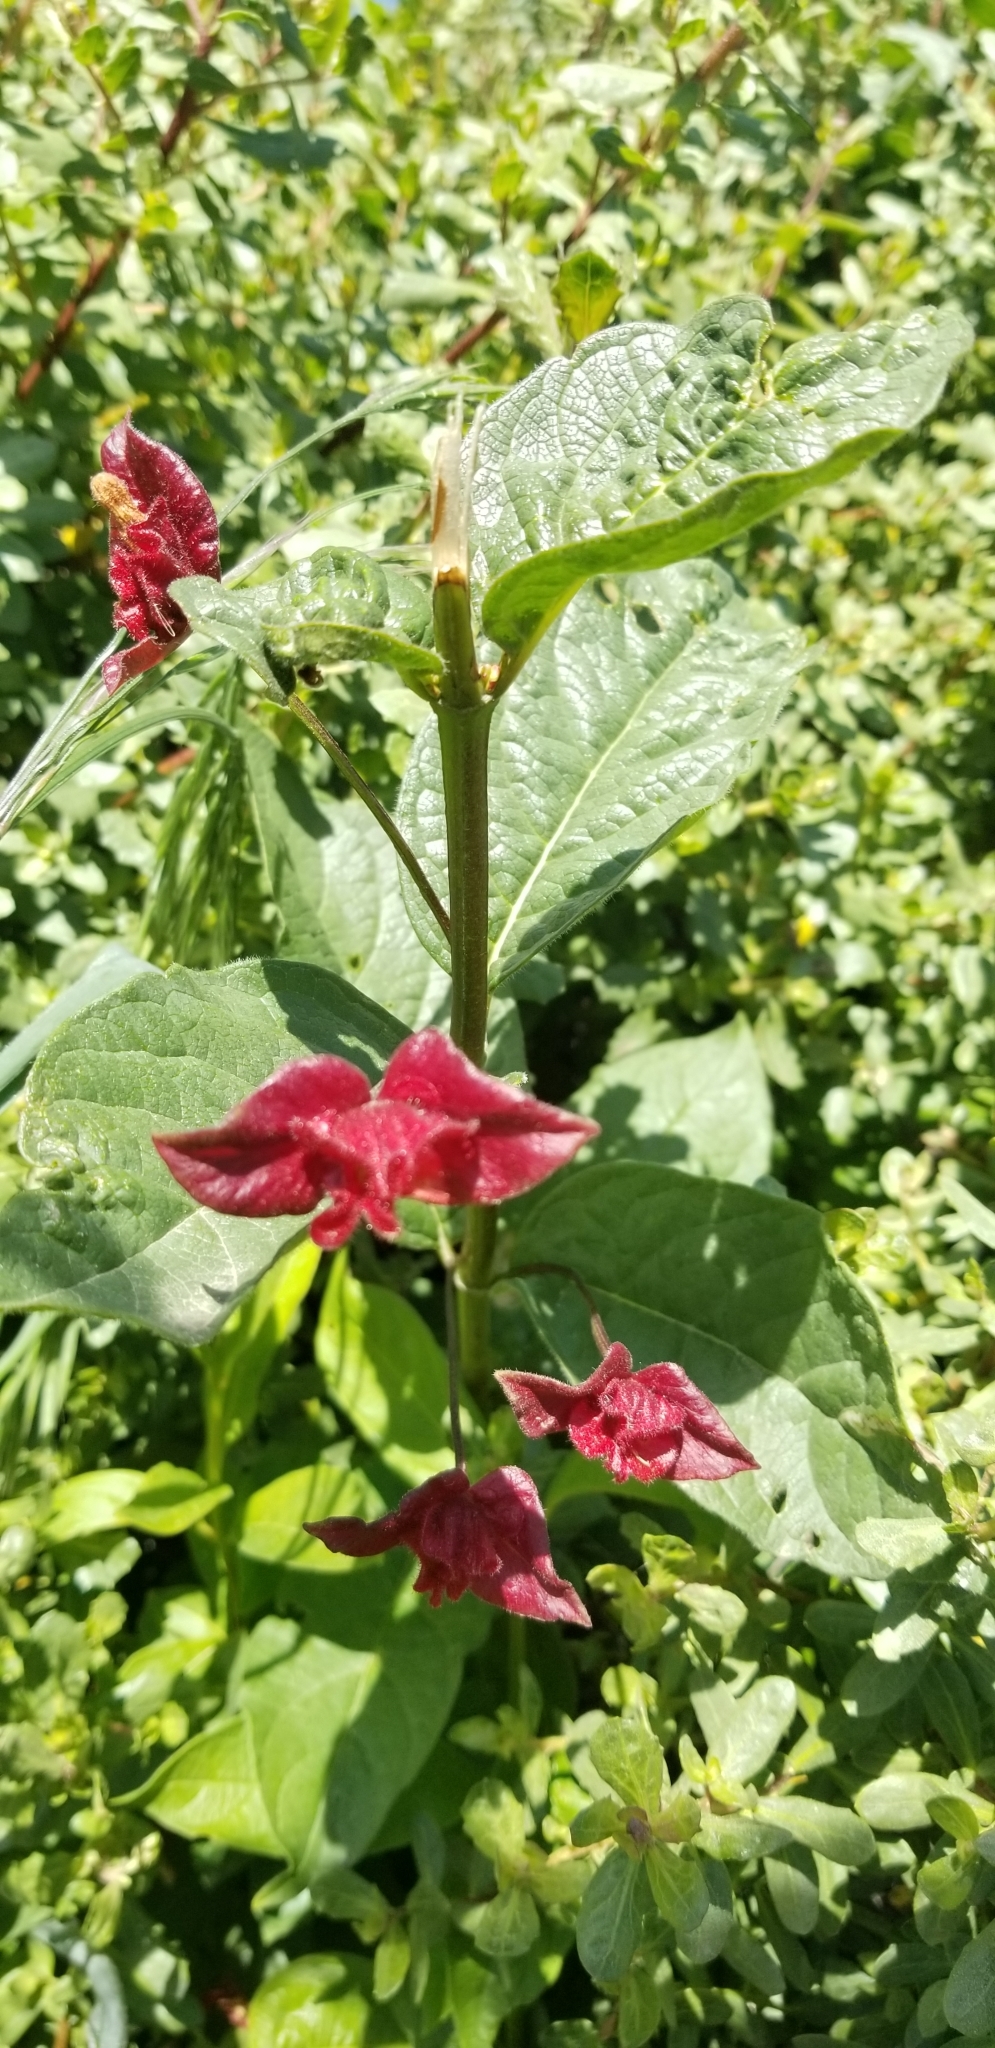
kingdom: Plantae
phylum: Tracheophyta
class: Magnoliopsida
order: Dipsacales
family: Caprifoliaceae
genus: Lonicera
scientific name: Lonicera involucrata
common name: Californian honeysuckle
